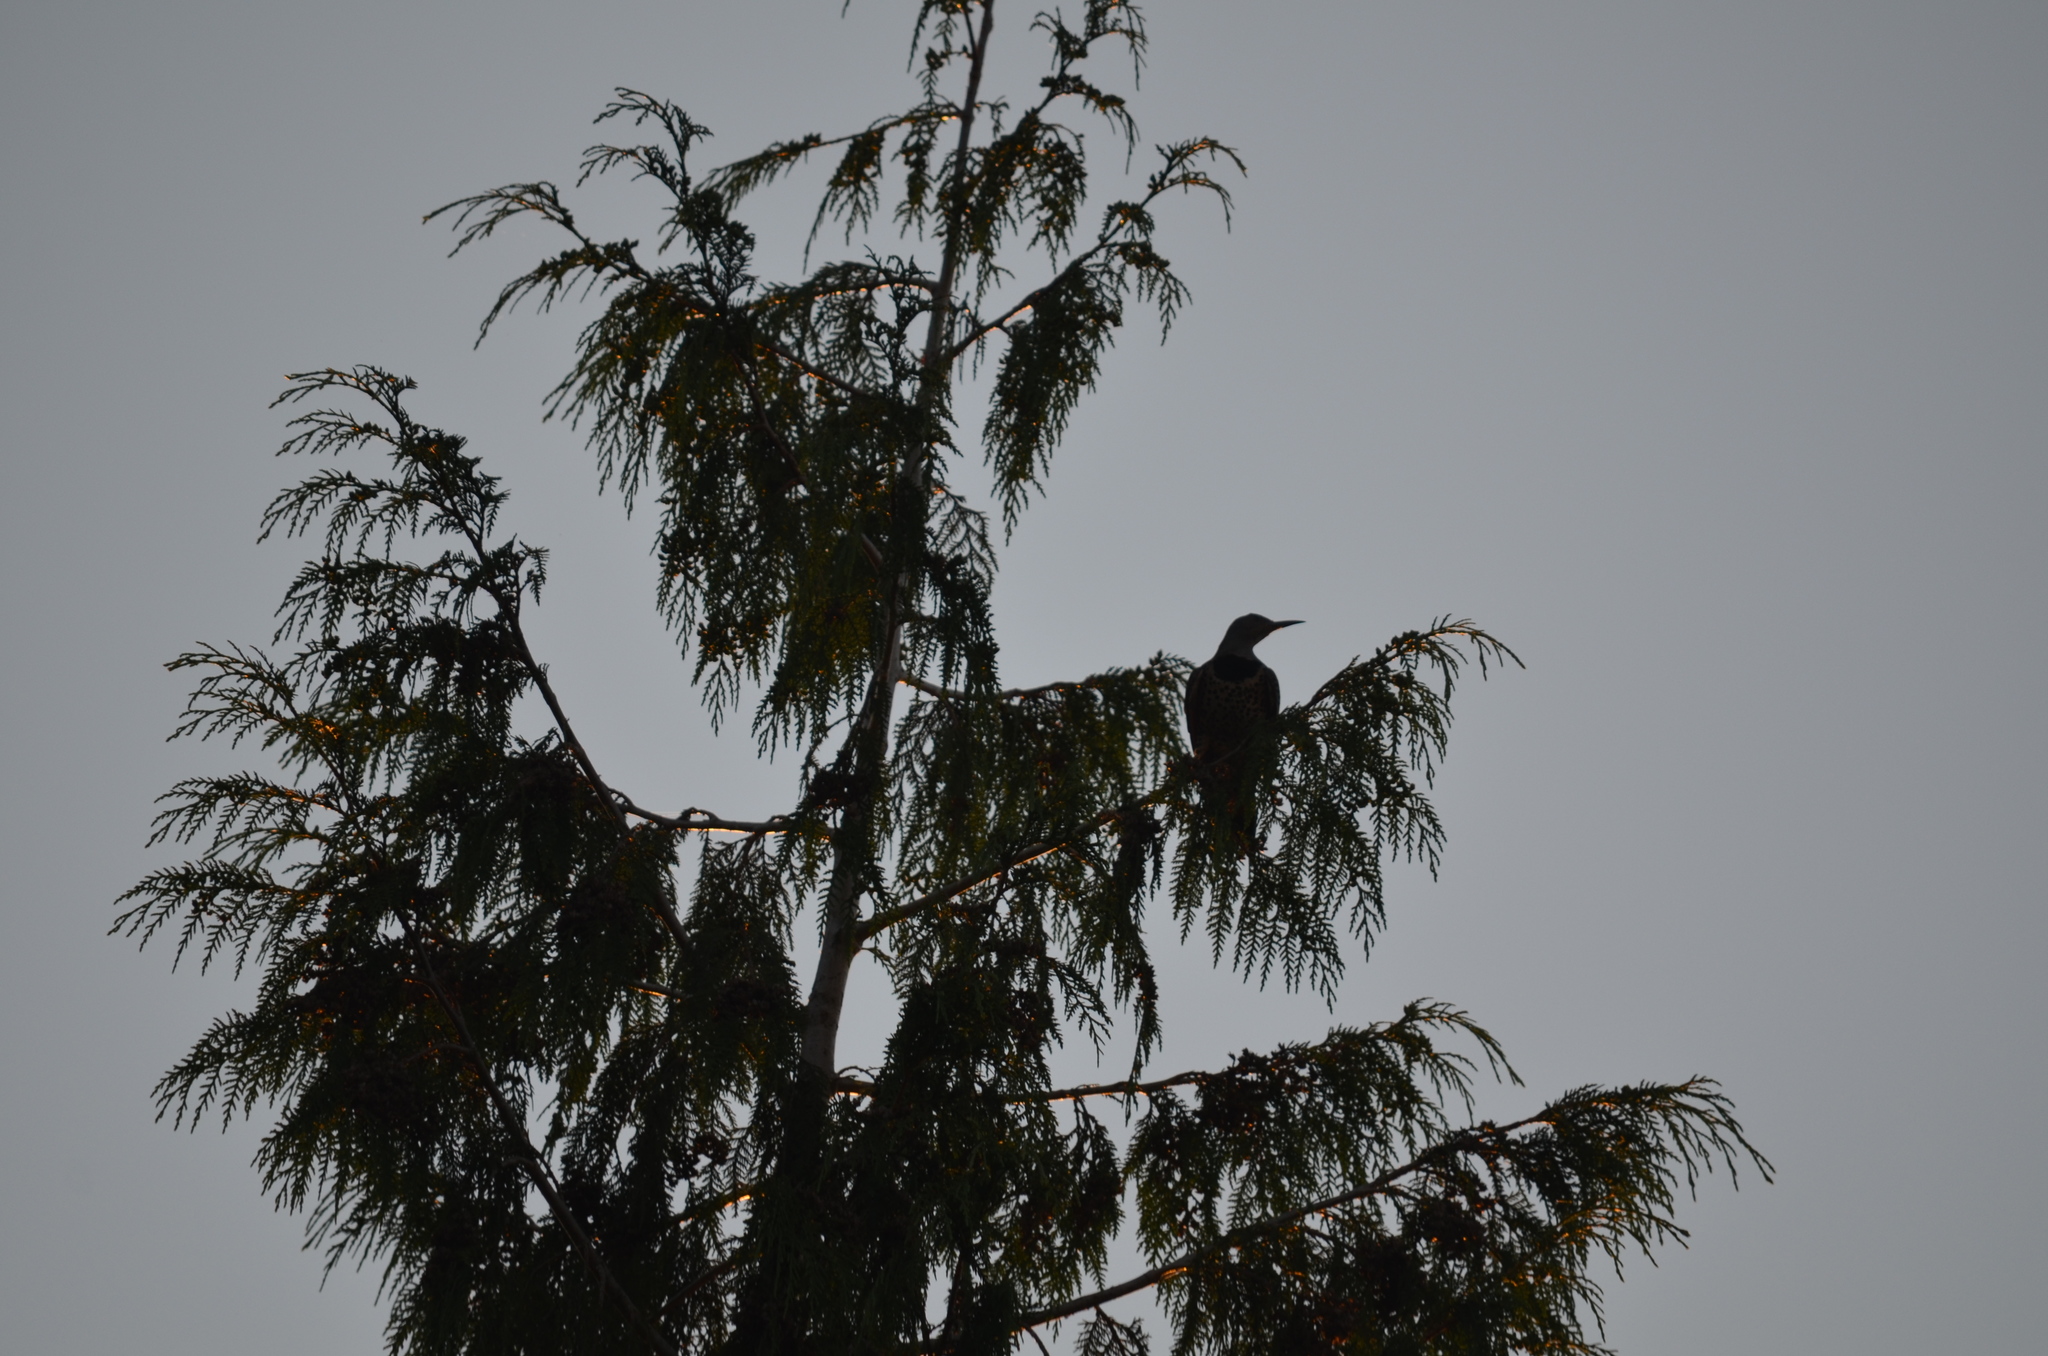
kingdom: Animalia
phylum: Chordata
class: Aves
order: Piciformes
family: Picidae
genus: Colaptes
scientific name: Colaptes auratus
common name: Northern flicker
